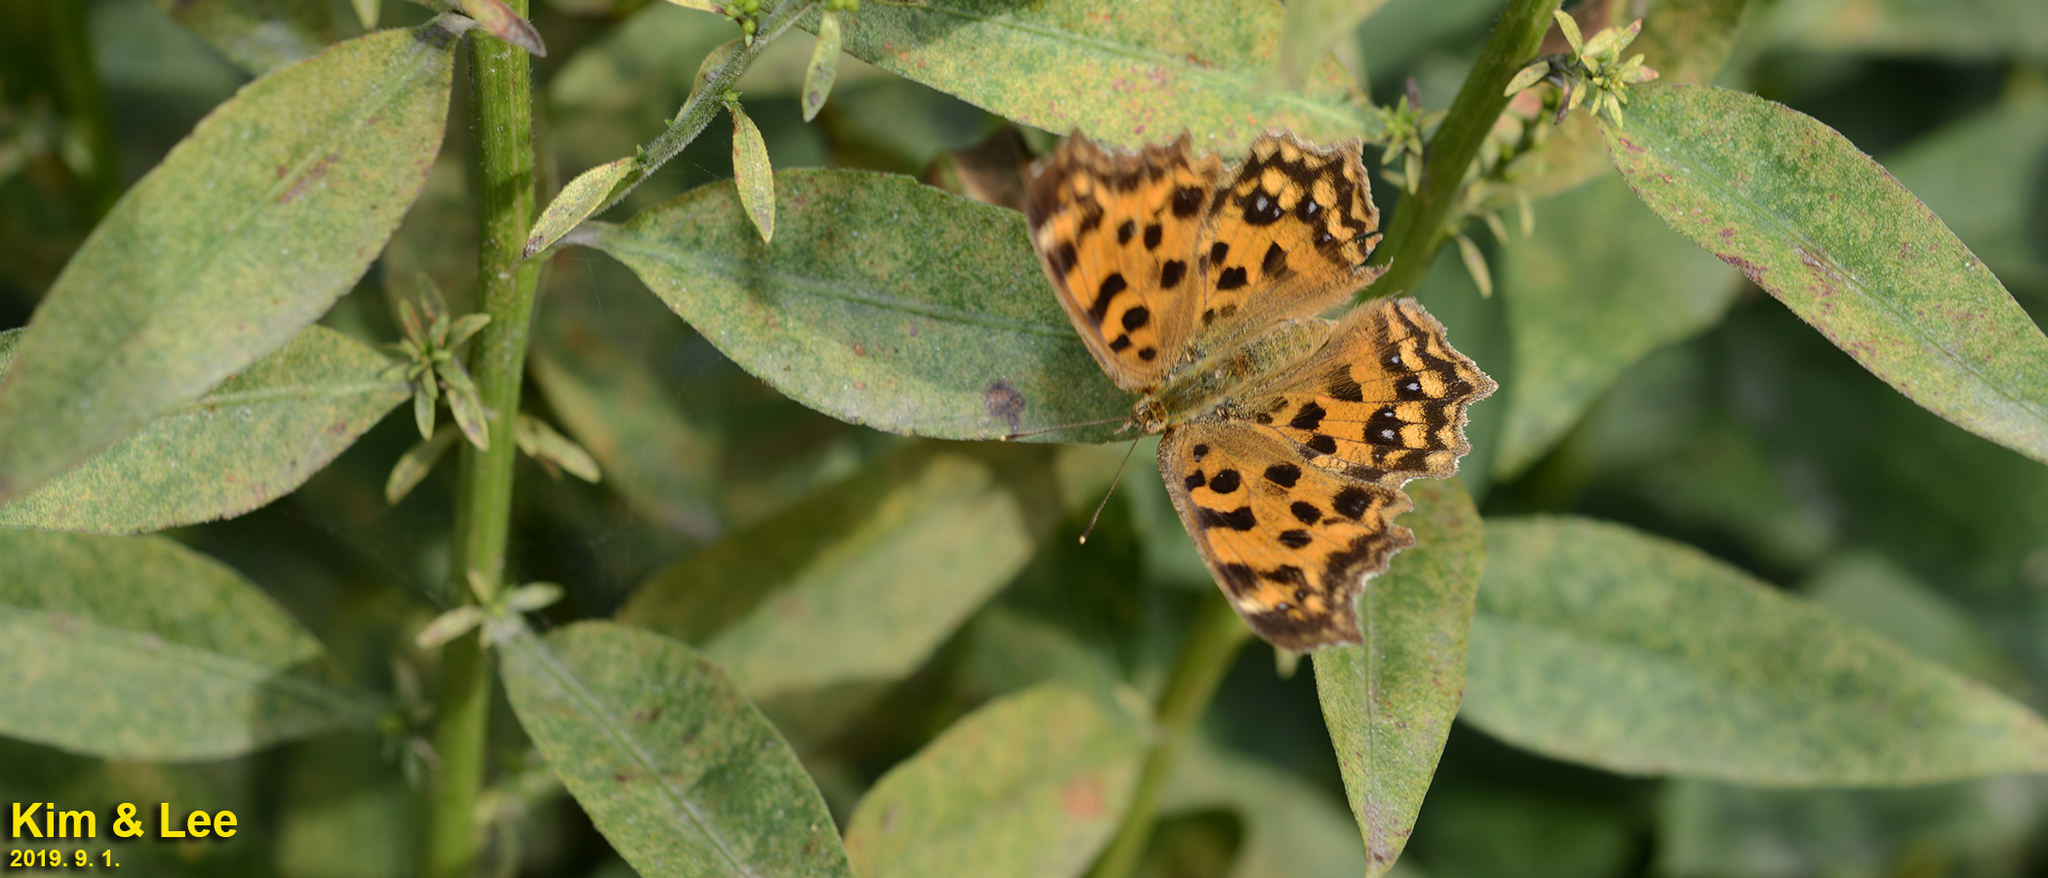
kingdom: Animalia
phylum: Arthropoda
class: Insecta
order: Lepidoptera
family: Nymphalidae
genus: Polygonia
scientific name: Polygonia c-aureum
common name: Asian comma
